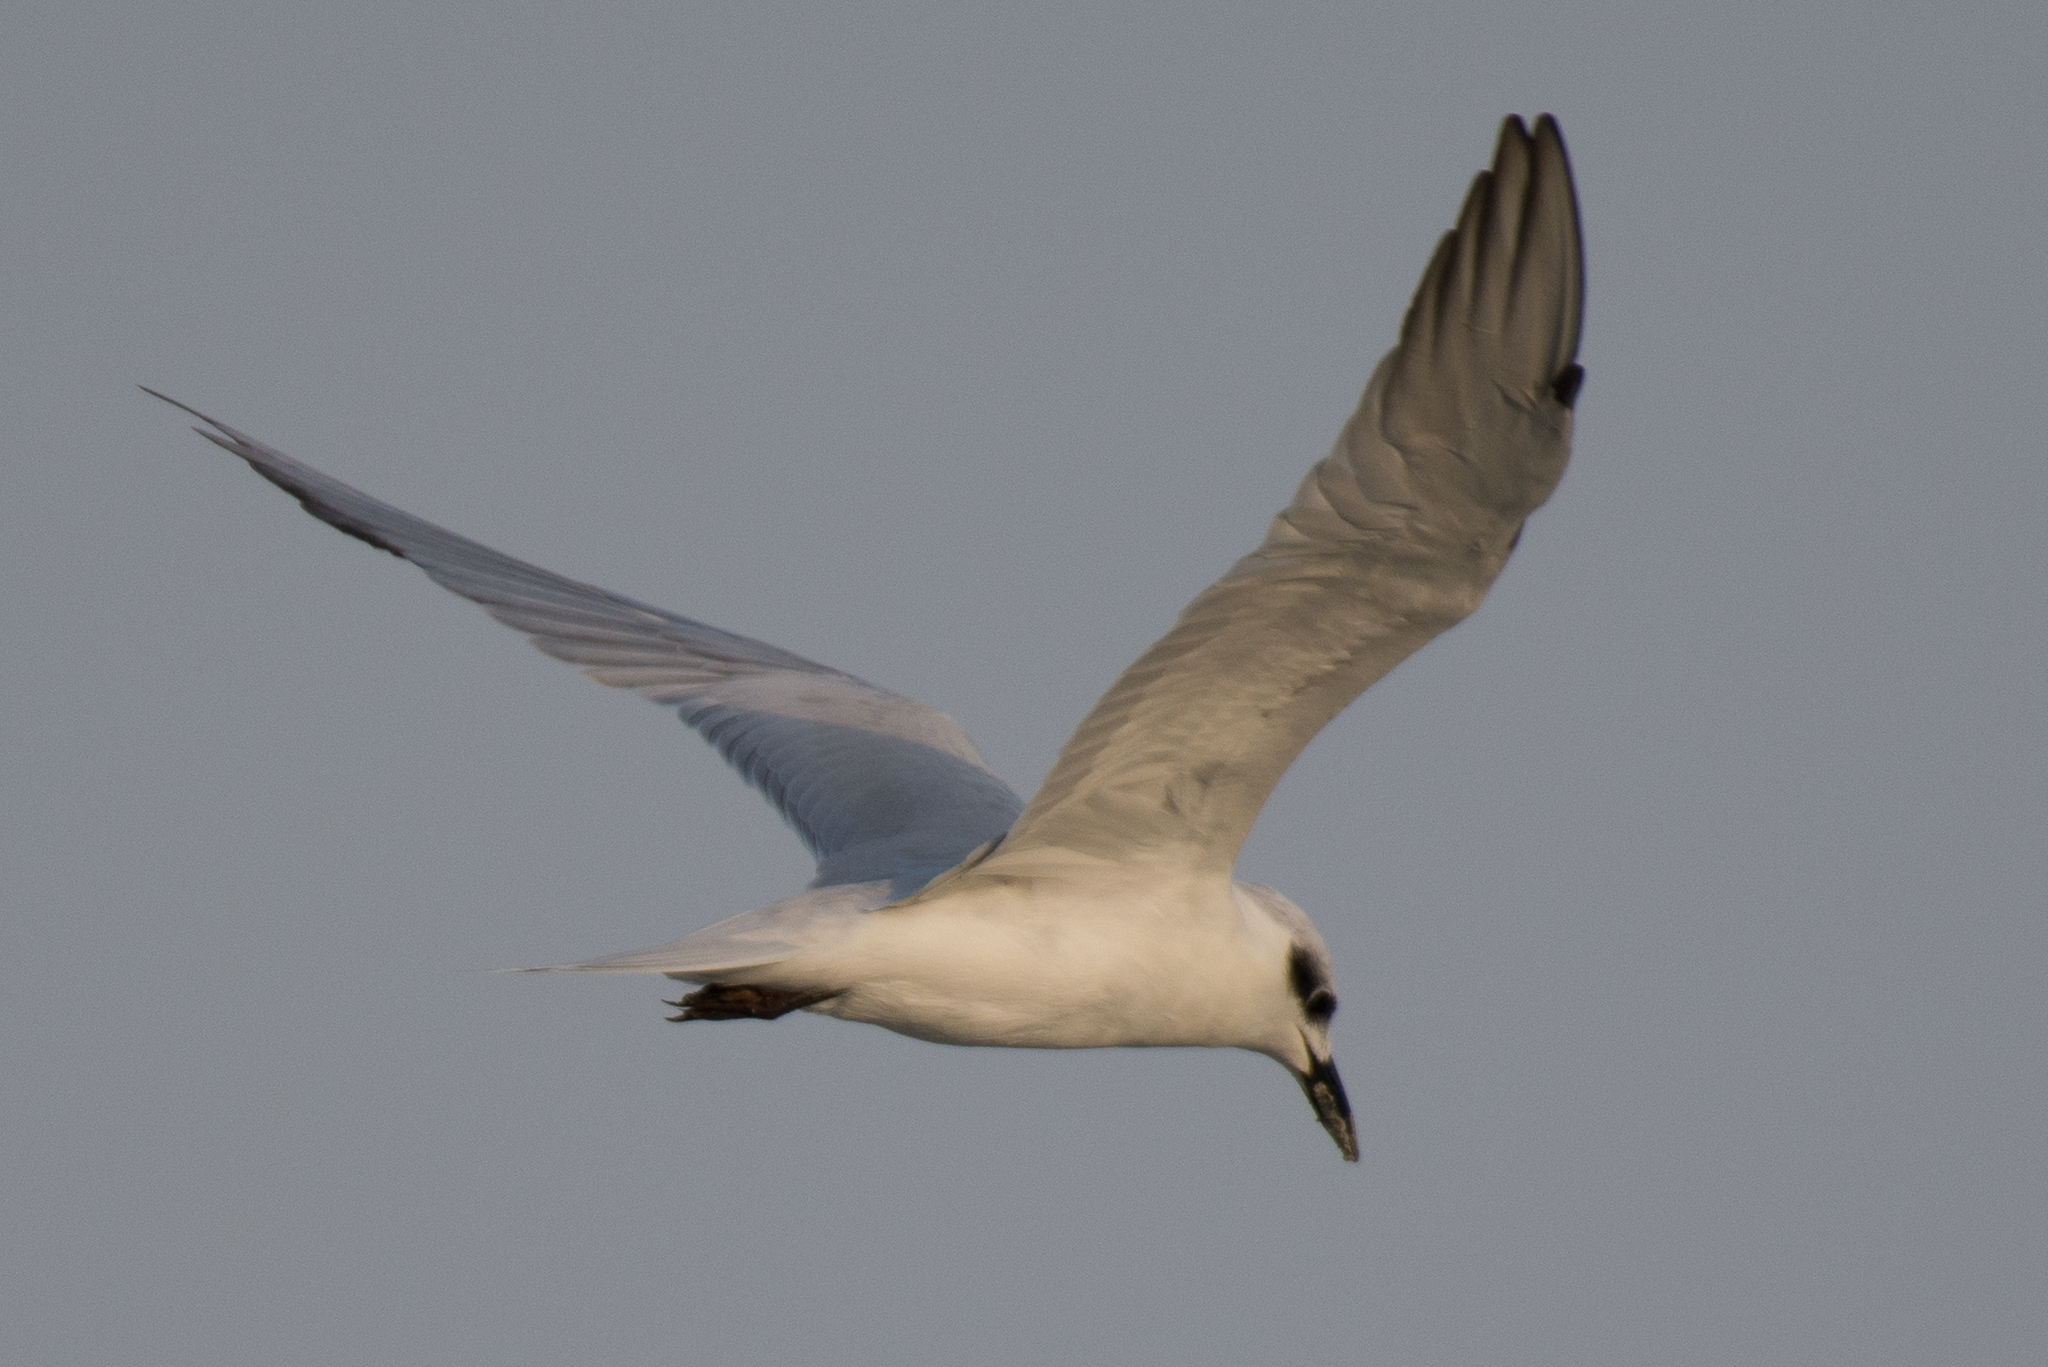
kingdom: Animalia
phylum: Chordata
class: Aves
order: Charadriiformes
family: Laridae
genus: Gelochelidon
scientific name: Gelochelidon nilotica
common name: Gull-billed tern
